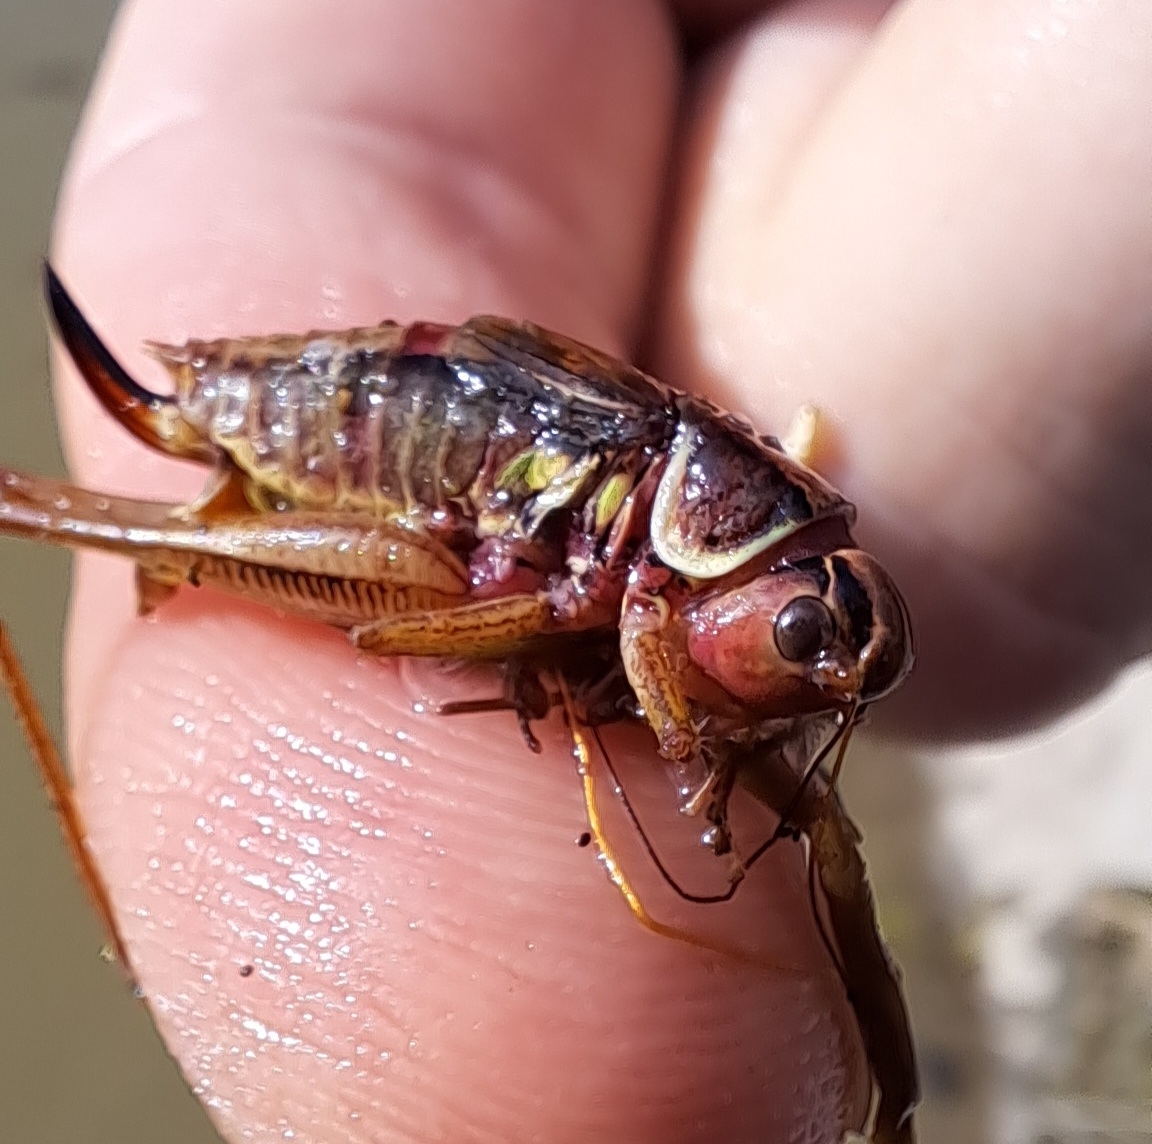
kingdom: Animalia
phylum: Arthropoda
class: Insecta
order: Orthoptera
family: Tettigoniidae
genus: Roeseliana
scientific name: Roeseliana roeselii
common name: Roesel's bush cricket
